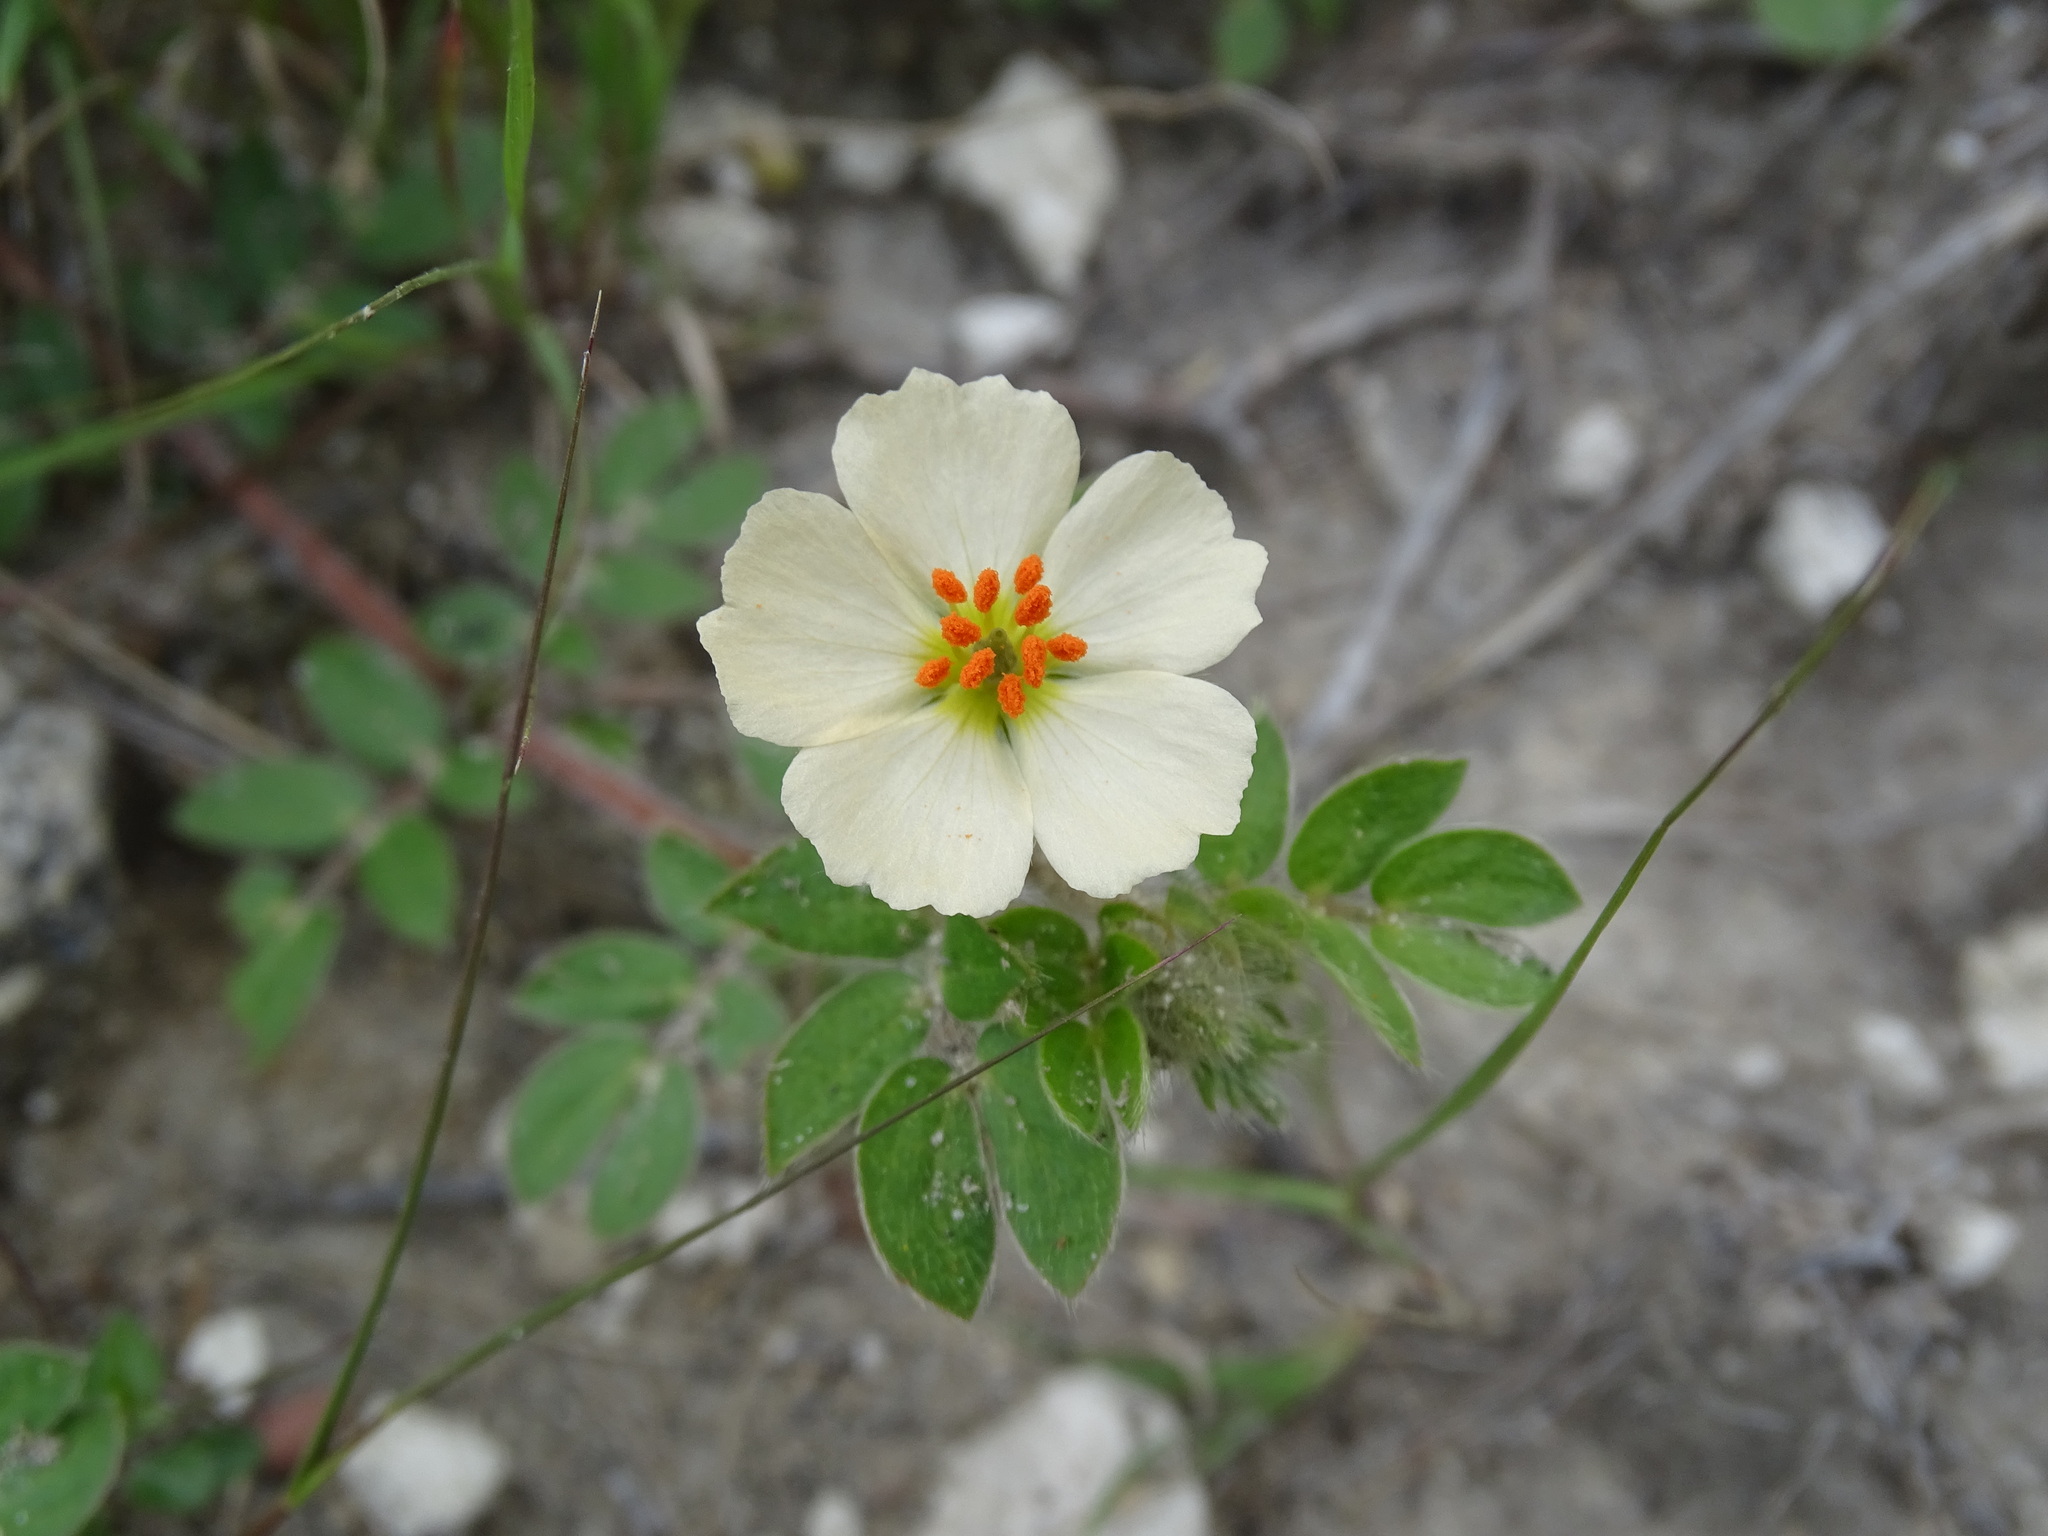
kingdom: Plantae
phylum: Tracheophyta
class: Magnoliopsida
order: Zygophyllales
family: Zygophyllaceae
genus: Kallstroemia
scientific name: Kallstroemia rosei
